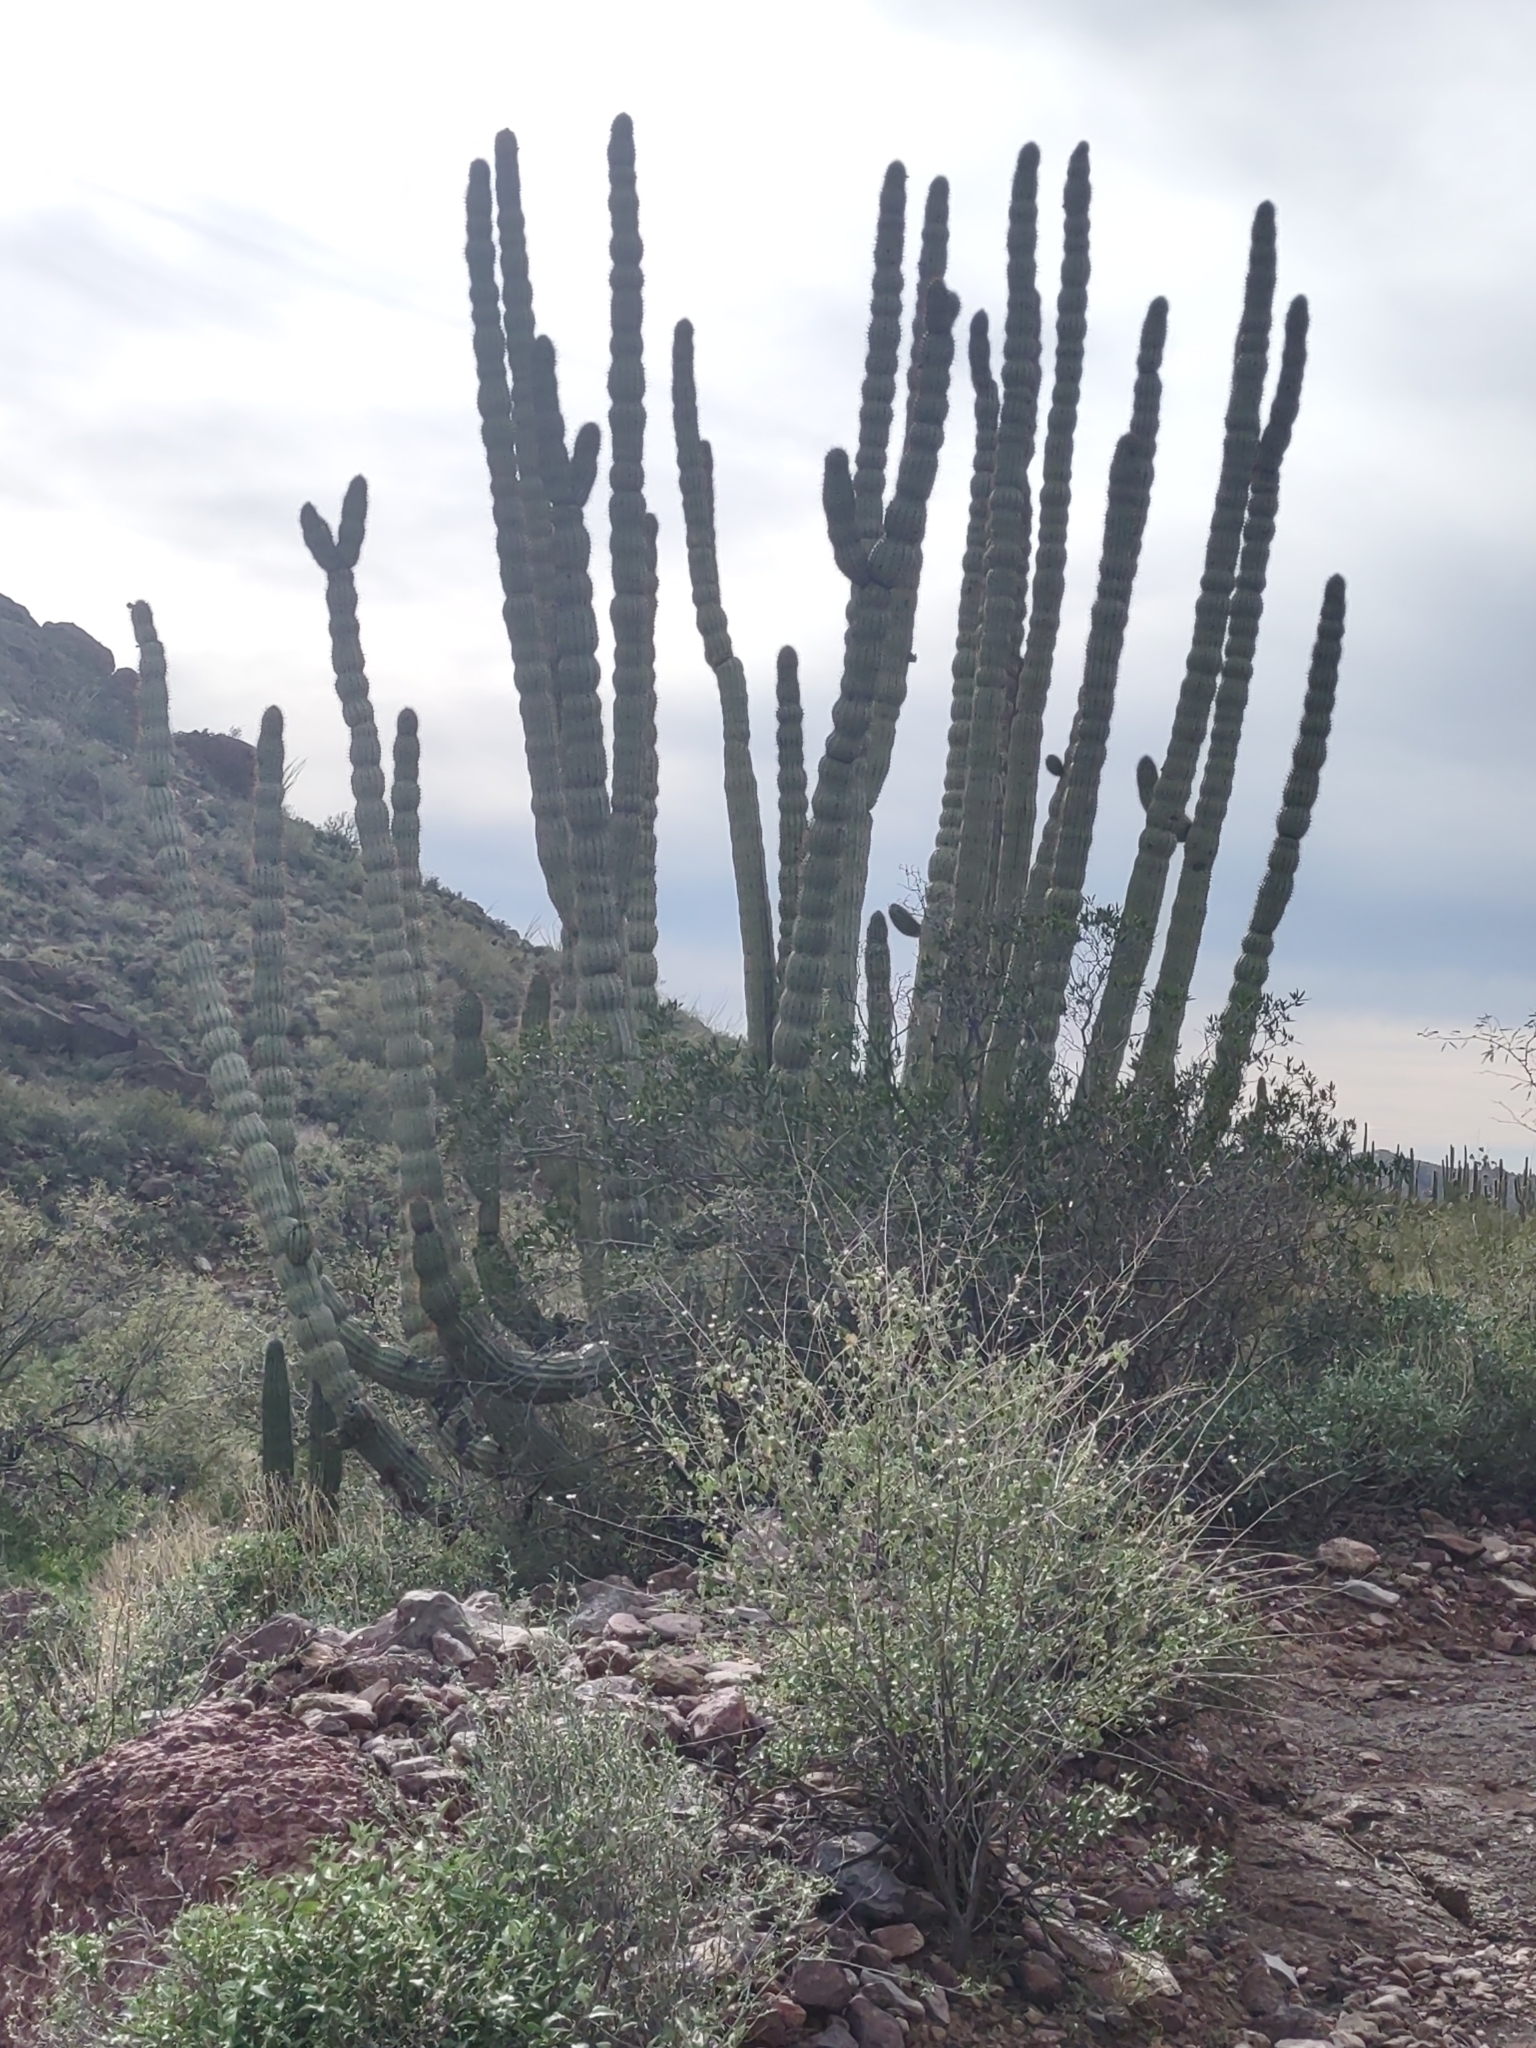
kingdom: Plantae
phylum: Tracheophyta
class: Magnoliopsida
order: Caryophyllales
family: Cactaceae
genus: Stenocereus
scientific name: Stenocereus thurberi
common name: Organ pipe cactus
